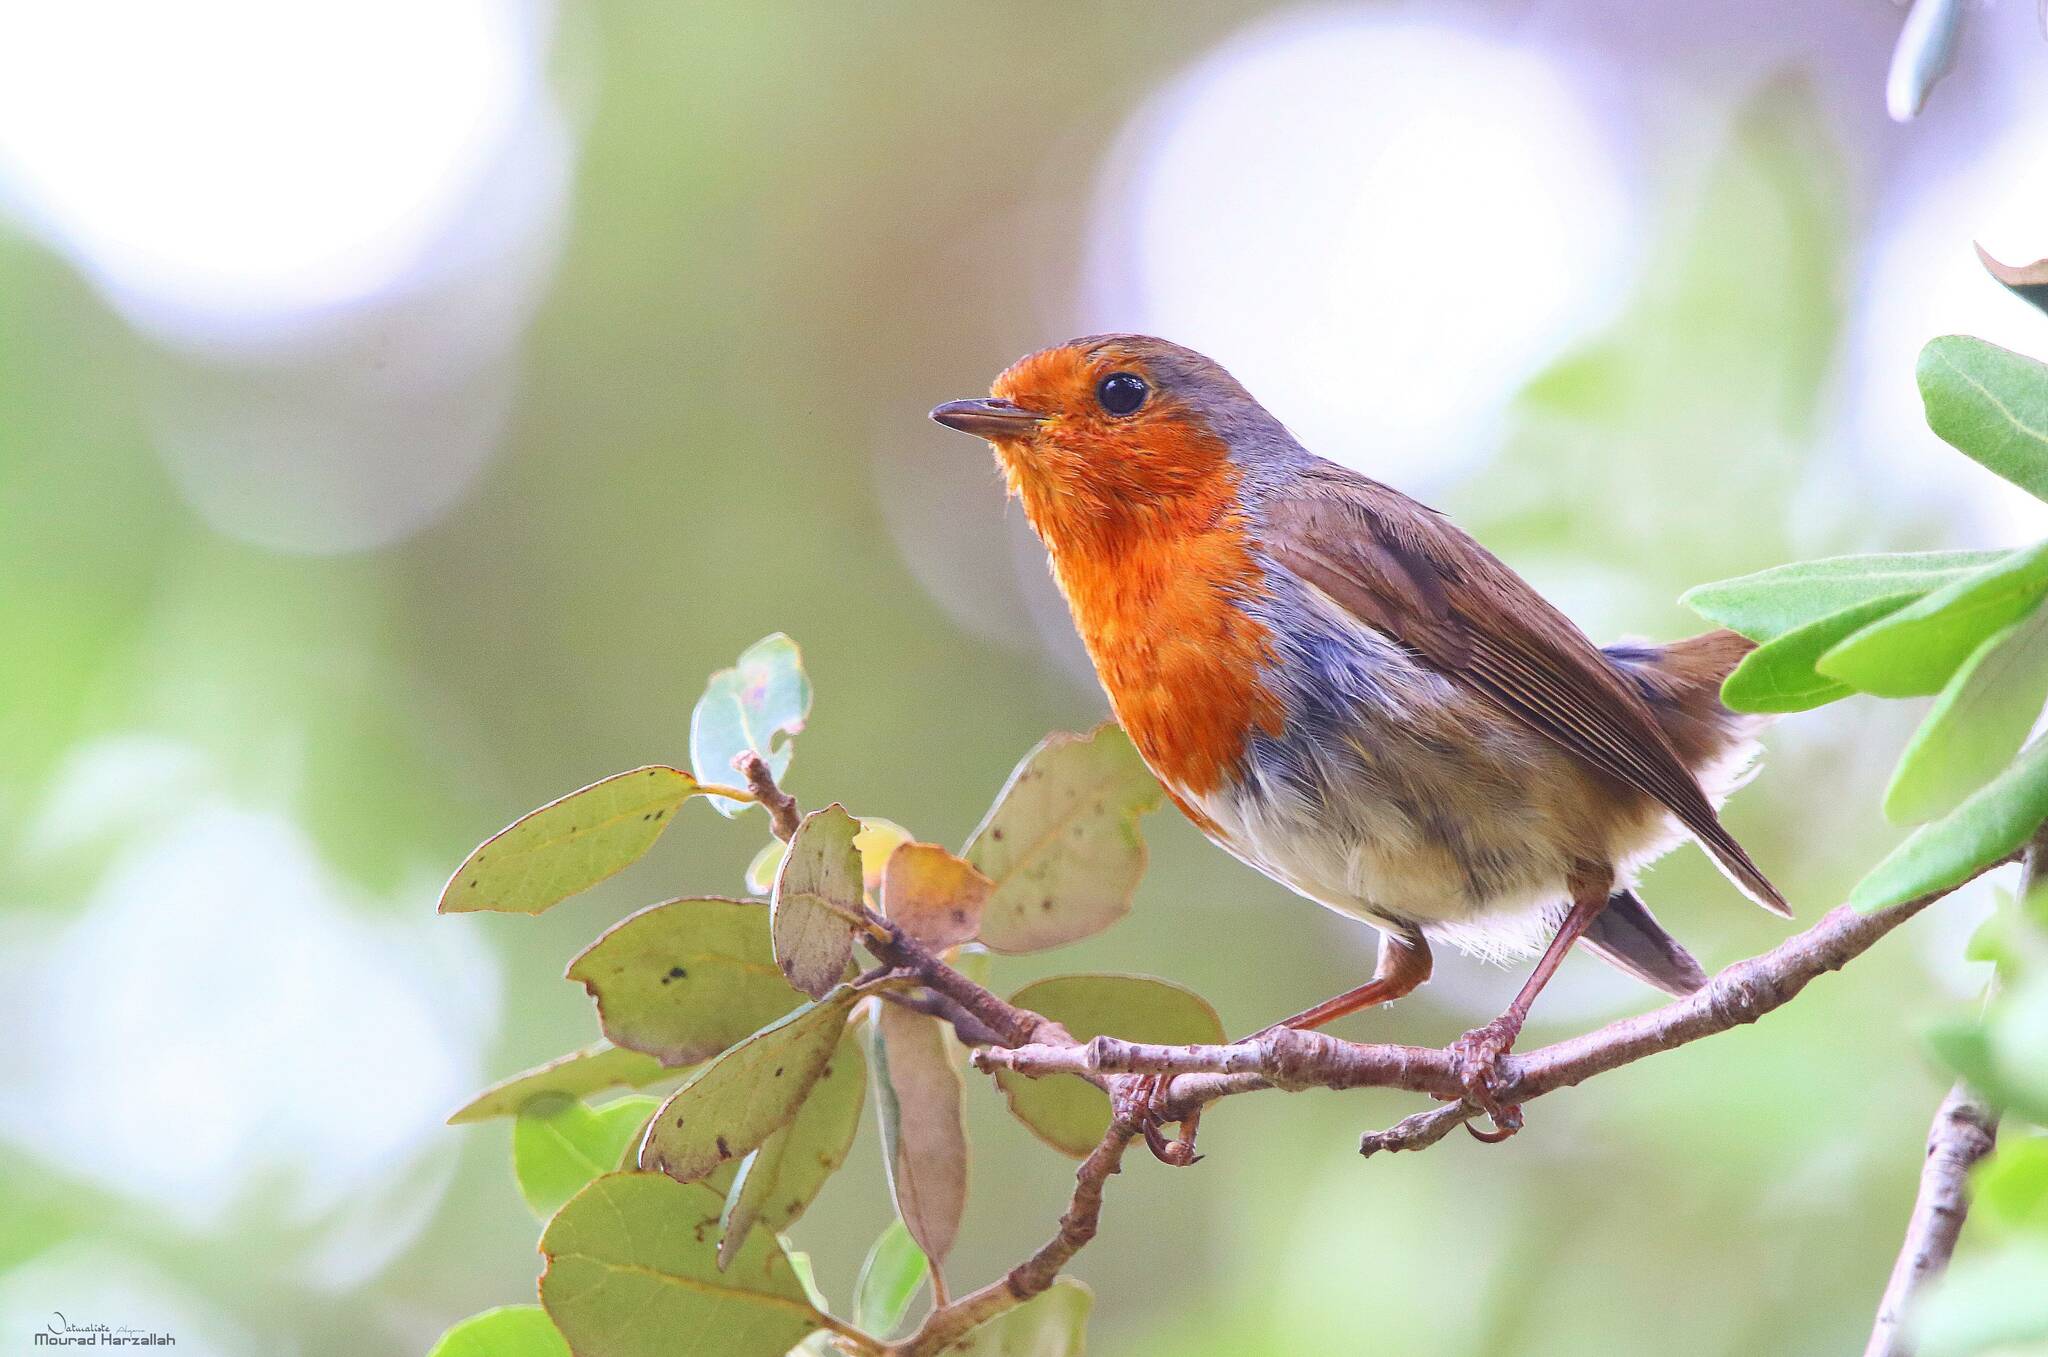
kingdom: Animalia
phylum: Chordata
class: Aves
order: Passeriformes
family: Muscicapidae
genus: Erithacus
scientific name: Erithacus rubecula
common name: European robin
